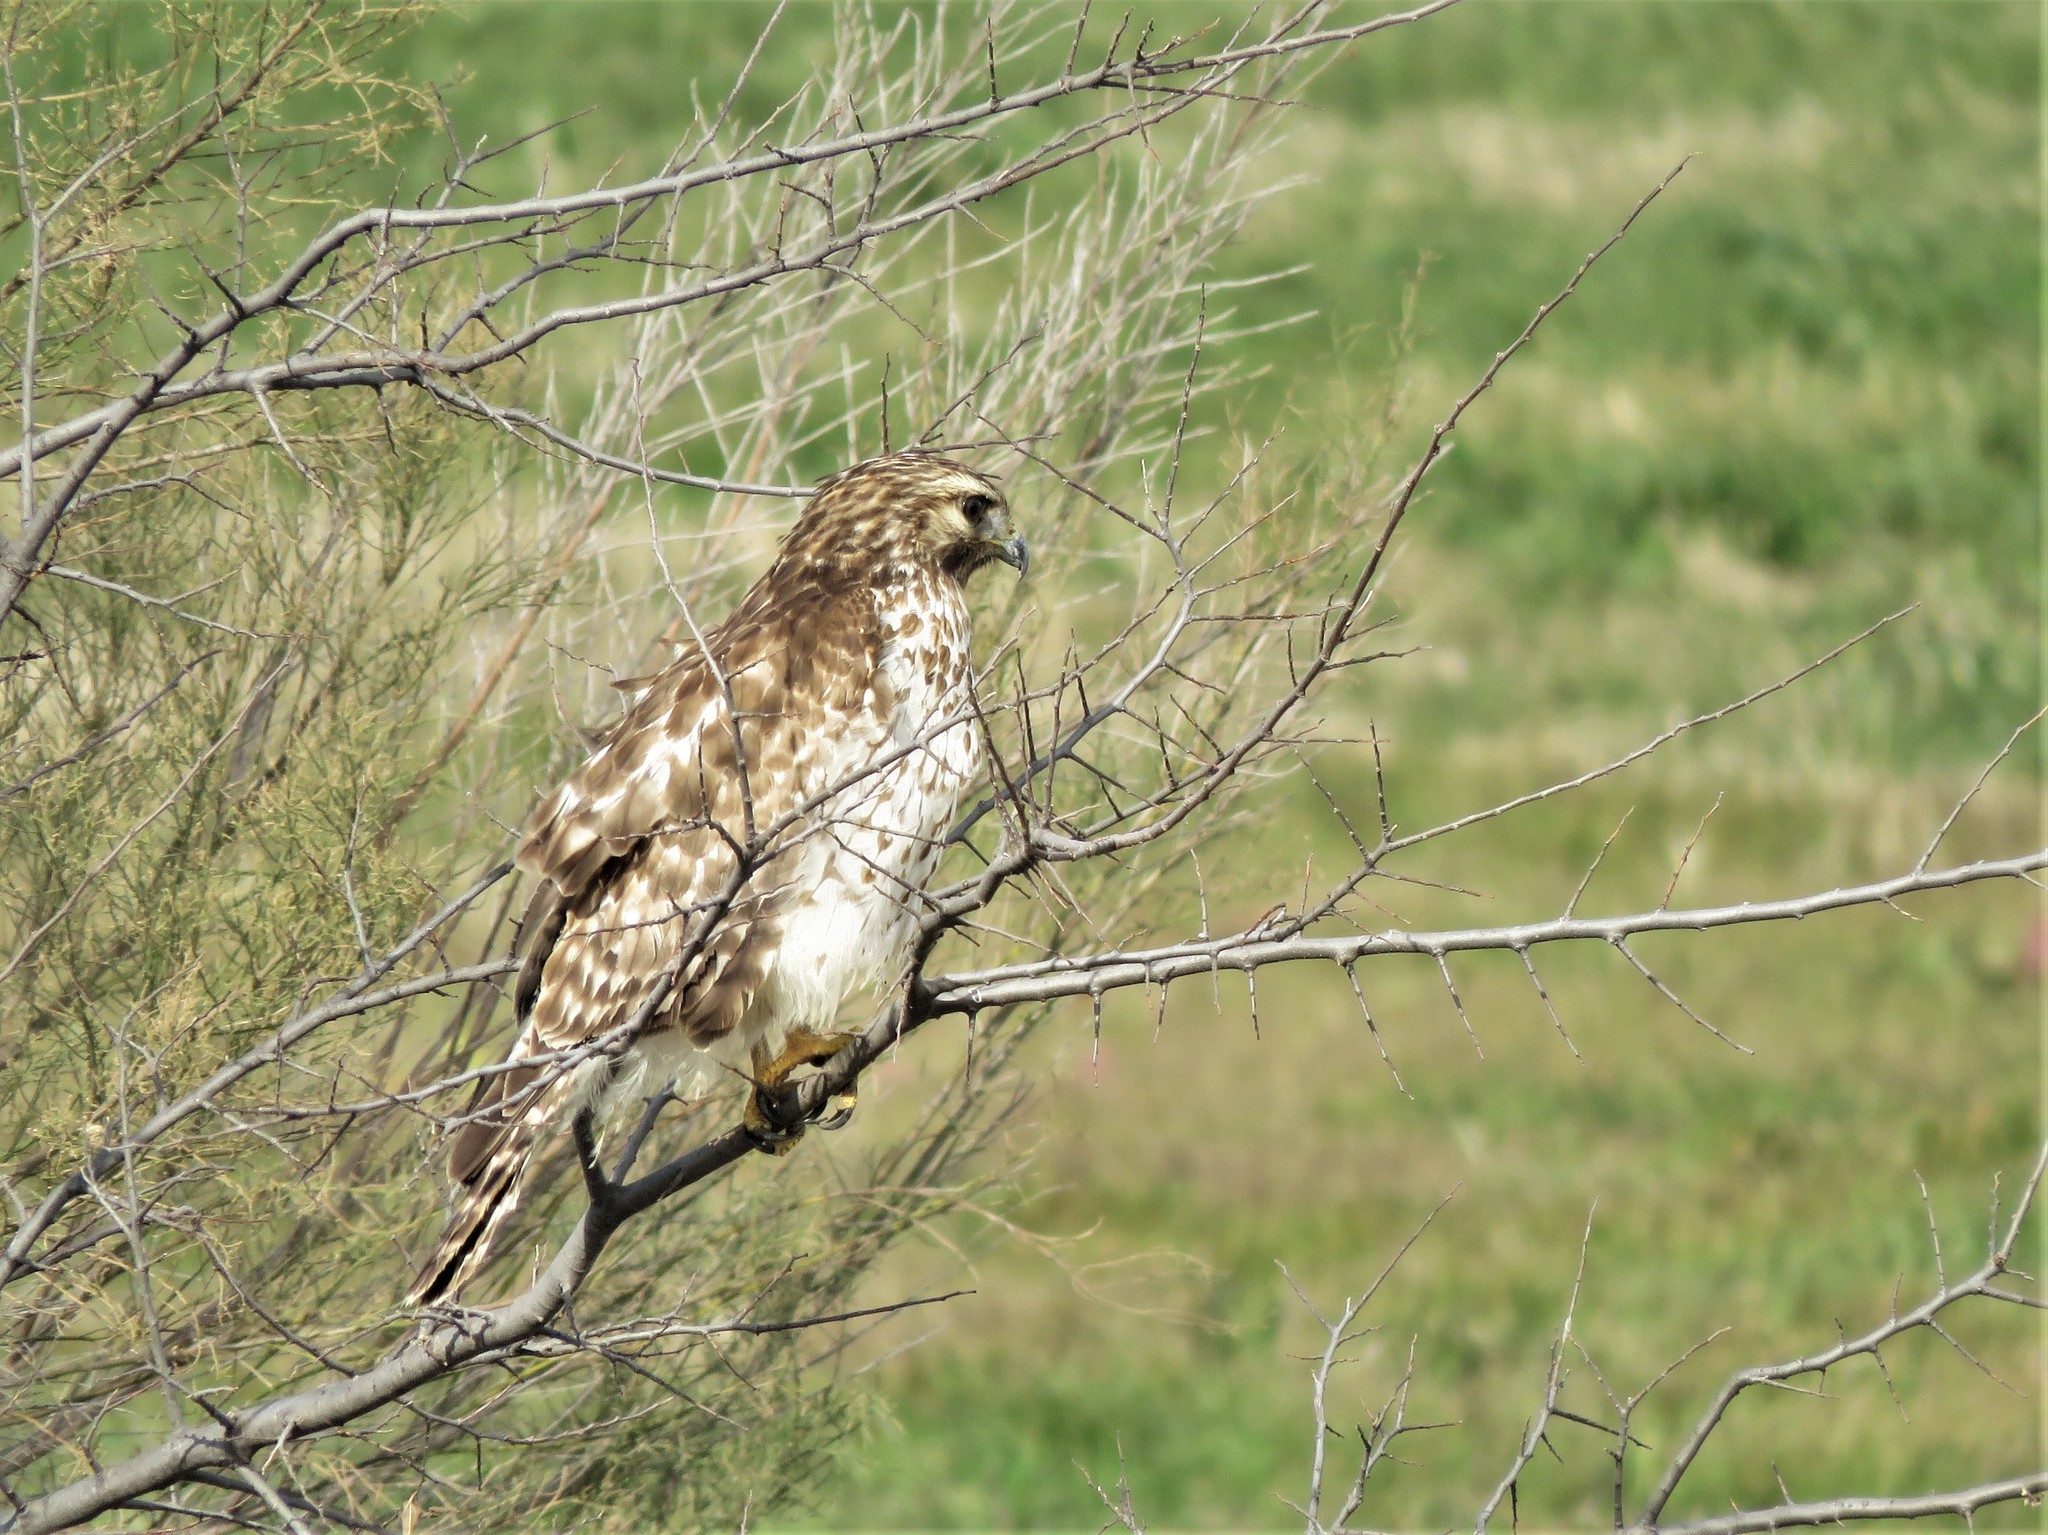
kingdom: Animalia
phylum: Chordata
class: Aves
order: Accipitriformes
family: Accipitridae
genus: Buteo
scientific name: Buteo lineatus
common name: Red-shouldered hawk
